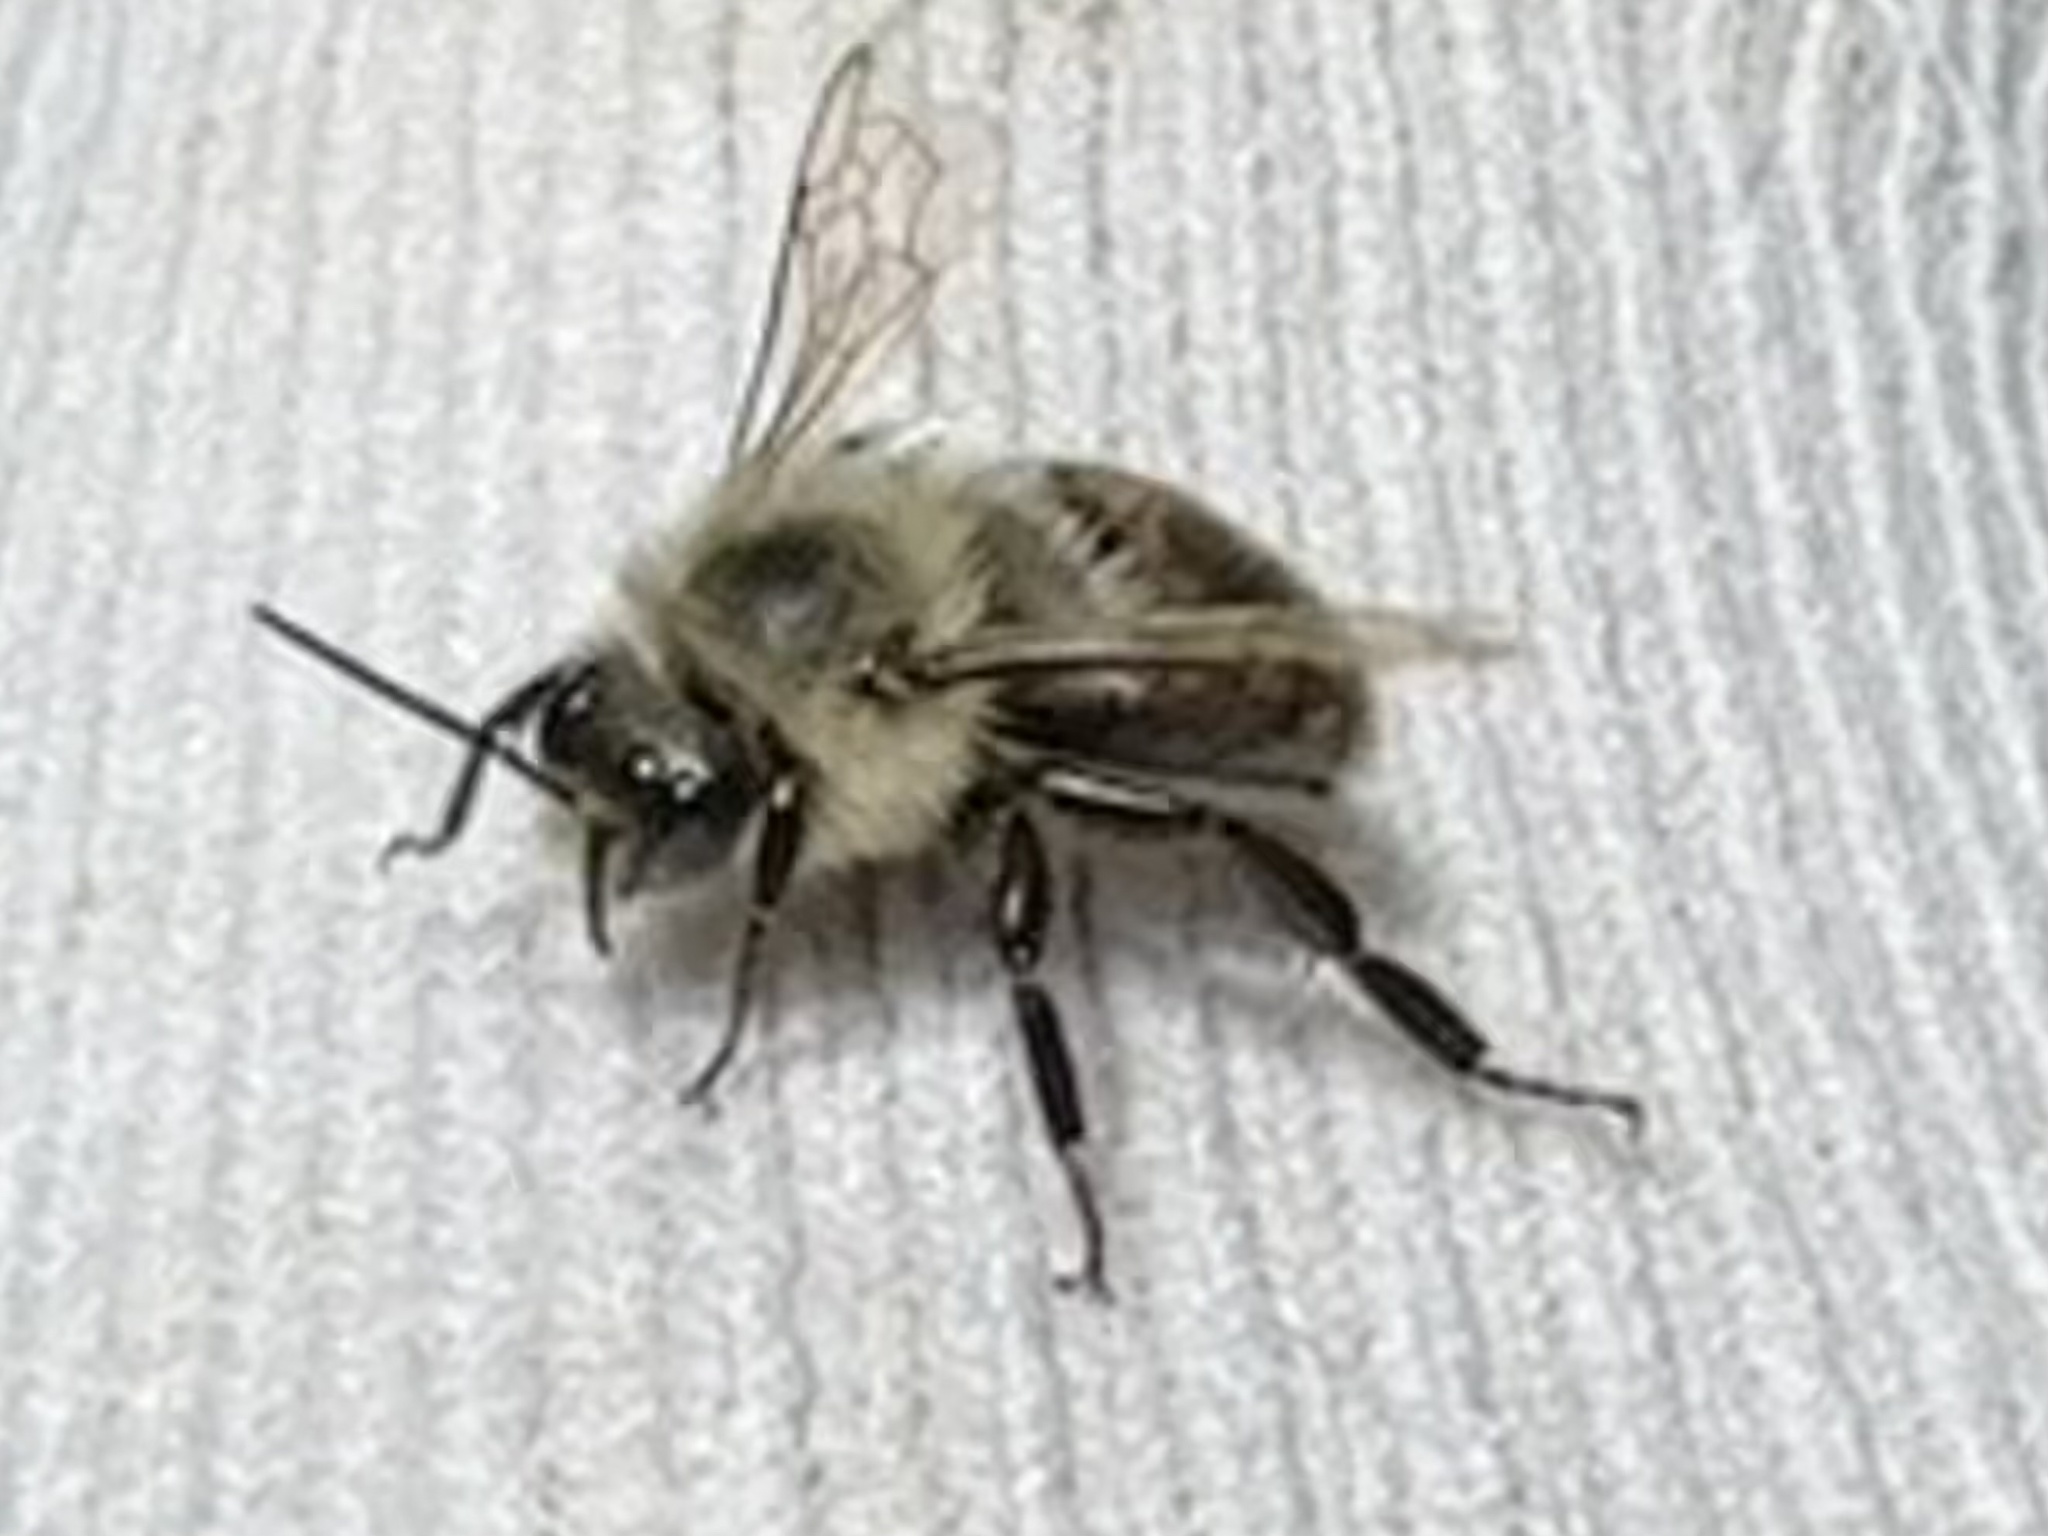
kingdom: Animalia
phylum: Arthropoda
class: Insecta
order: Hymenoptera
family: Apidae
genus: Bombus
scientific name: Bombus impatiens
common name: Common eastern bumble bee
